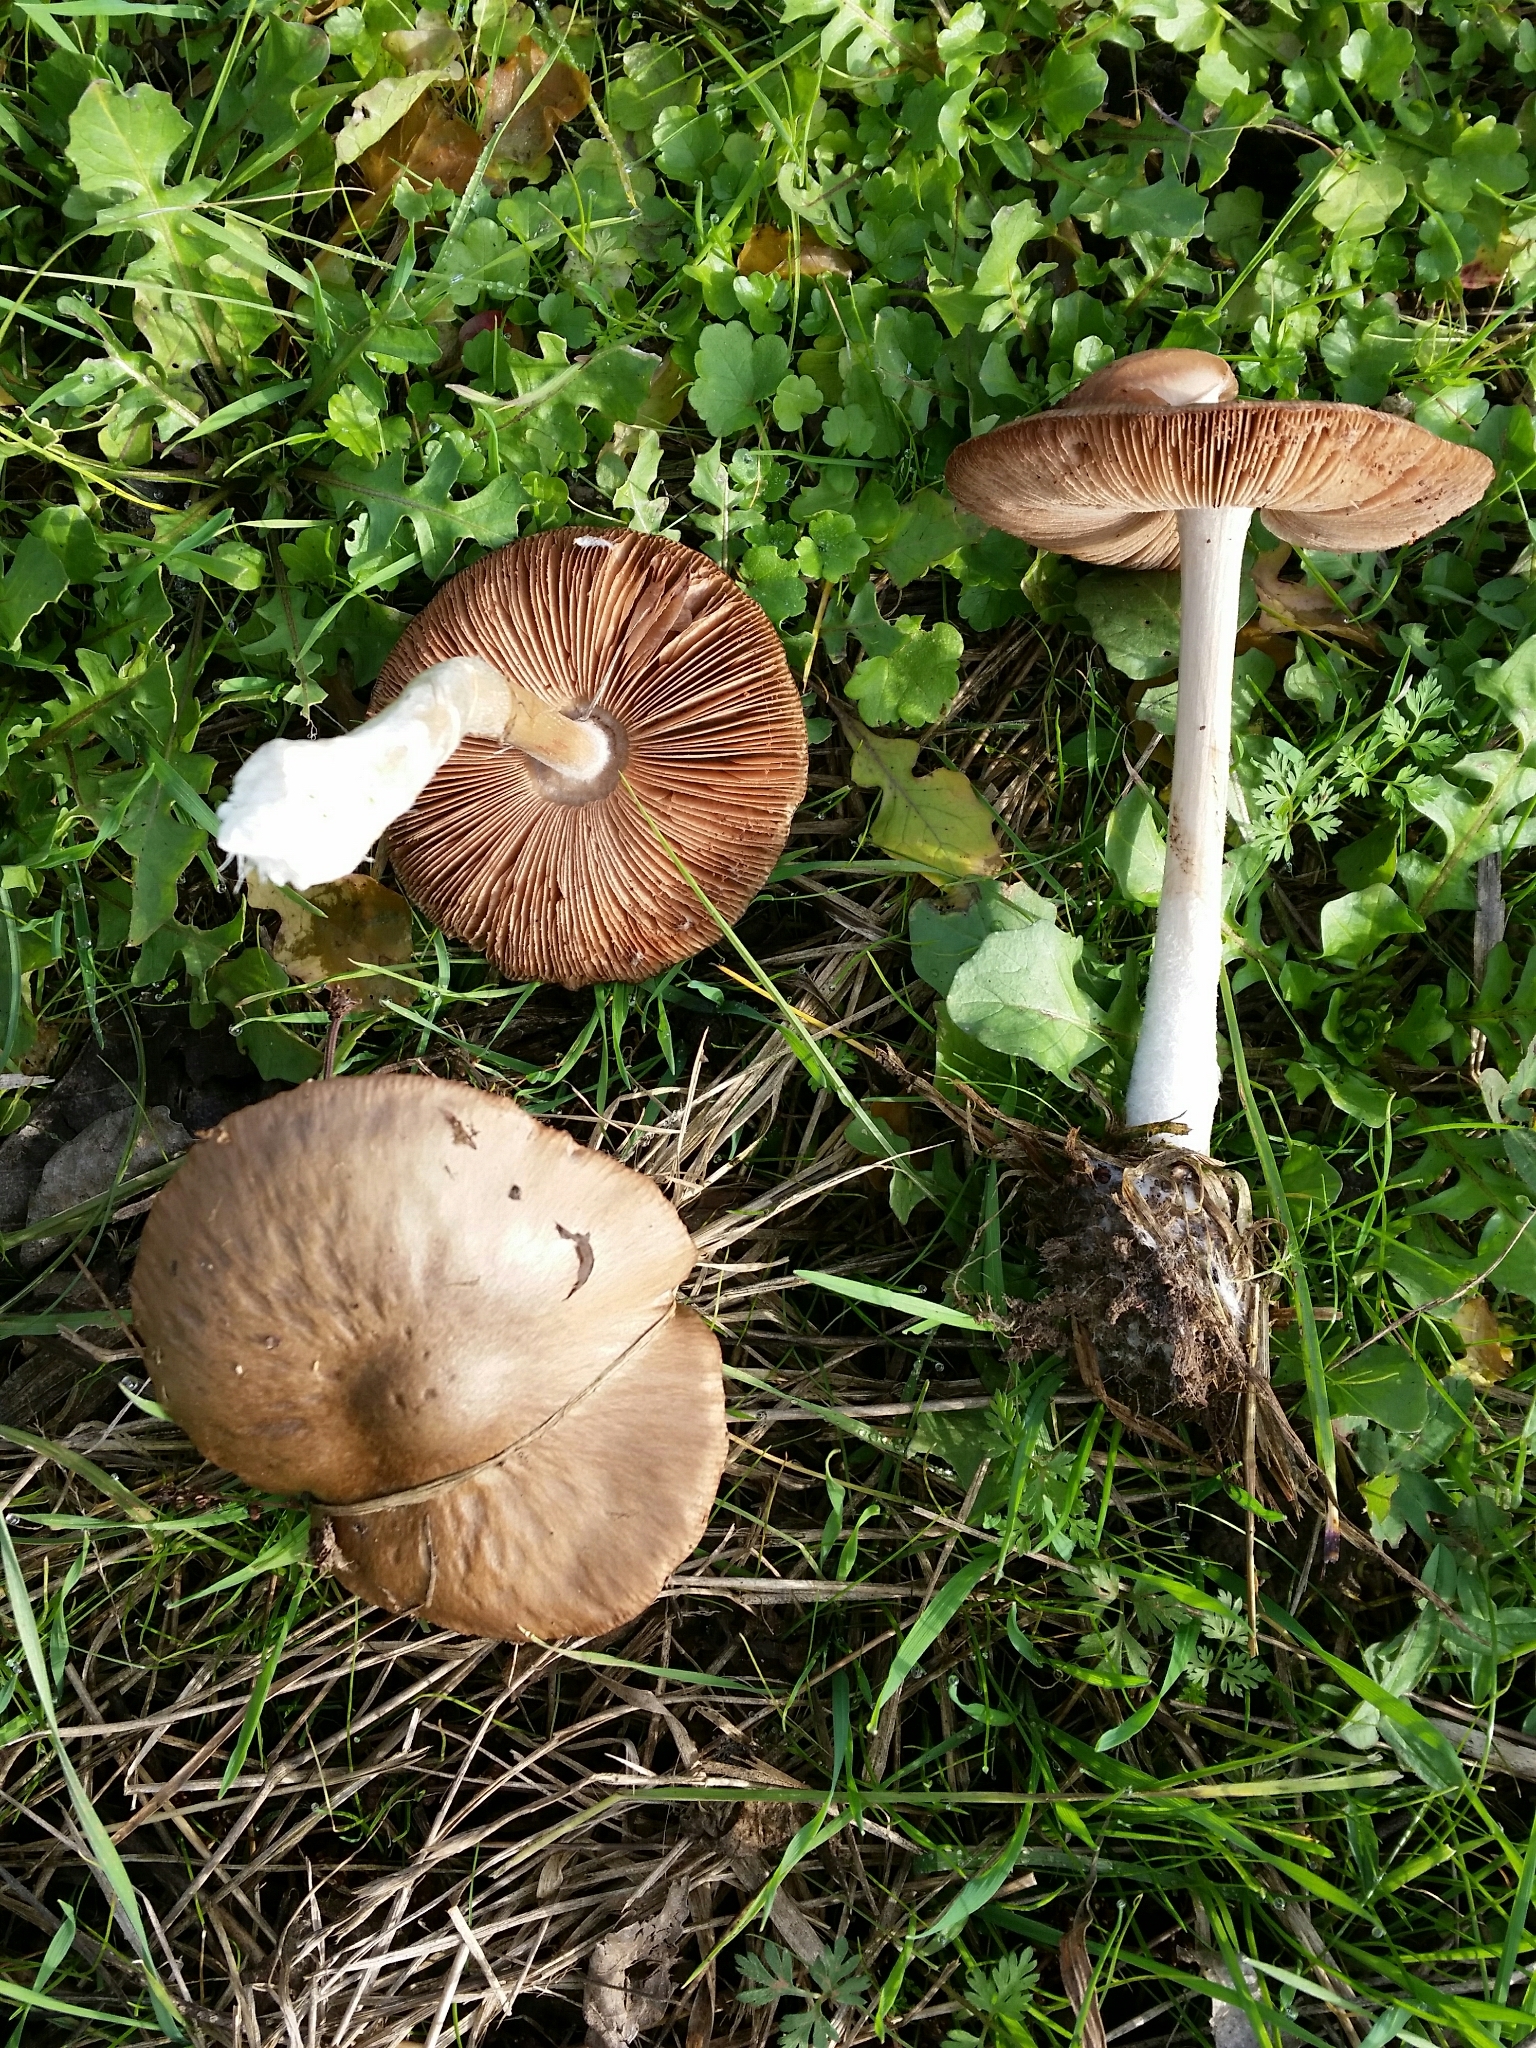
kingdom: Fungi
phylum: Basidiomycota
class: Agaricomycetes
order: Agaricales
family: Pluteaceae
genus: Volvopluteus
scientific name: Volvopluteus gloiocephalus
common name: Stubble rosegill
